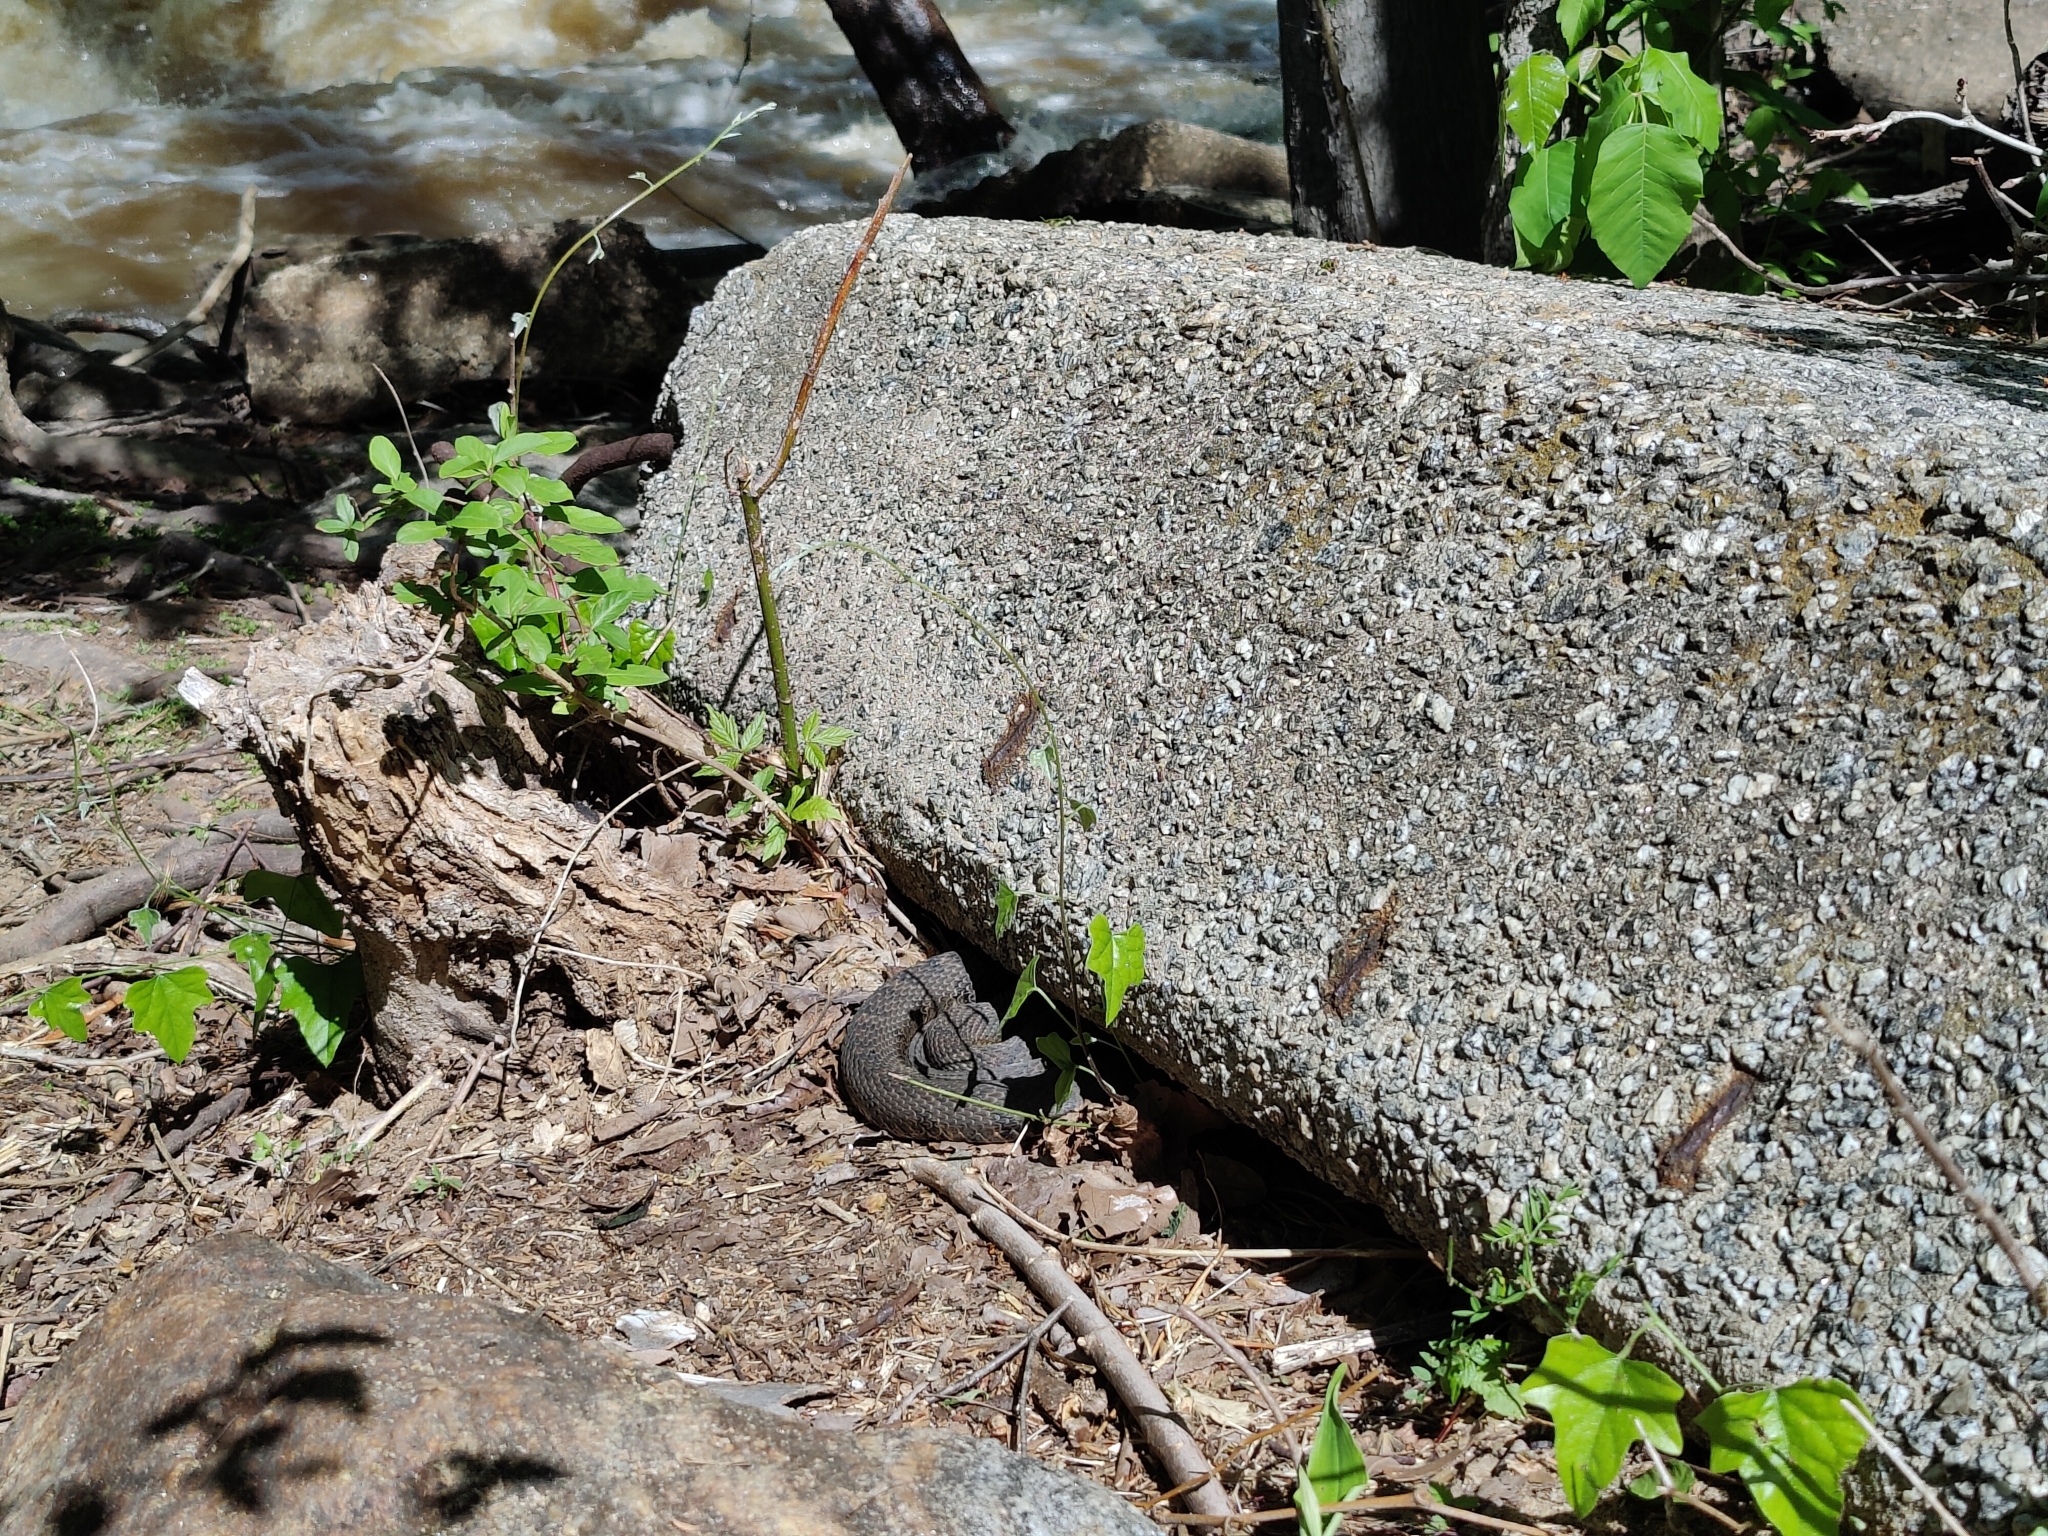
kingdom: Animalia
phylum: Chordata
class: Squamata
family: Colubridae
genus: Nerodia
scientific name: Nerodia sipedon
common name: Northern water snake
